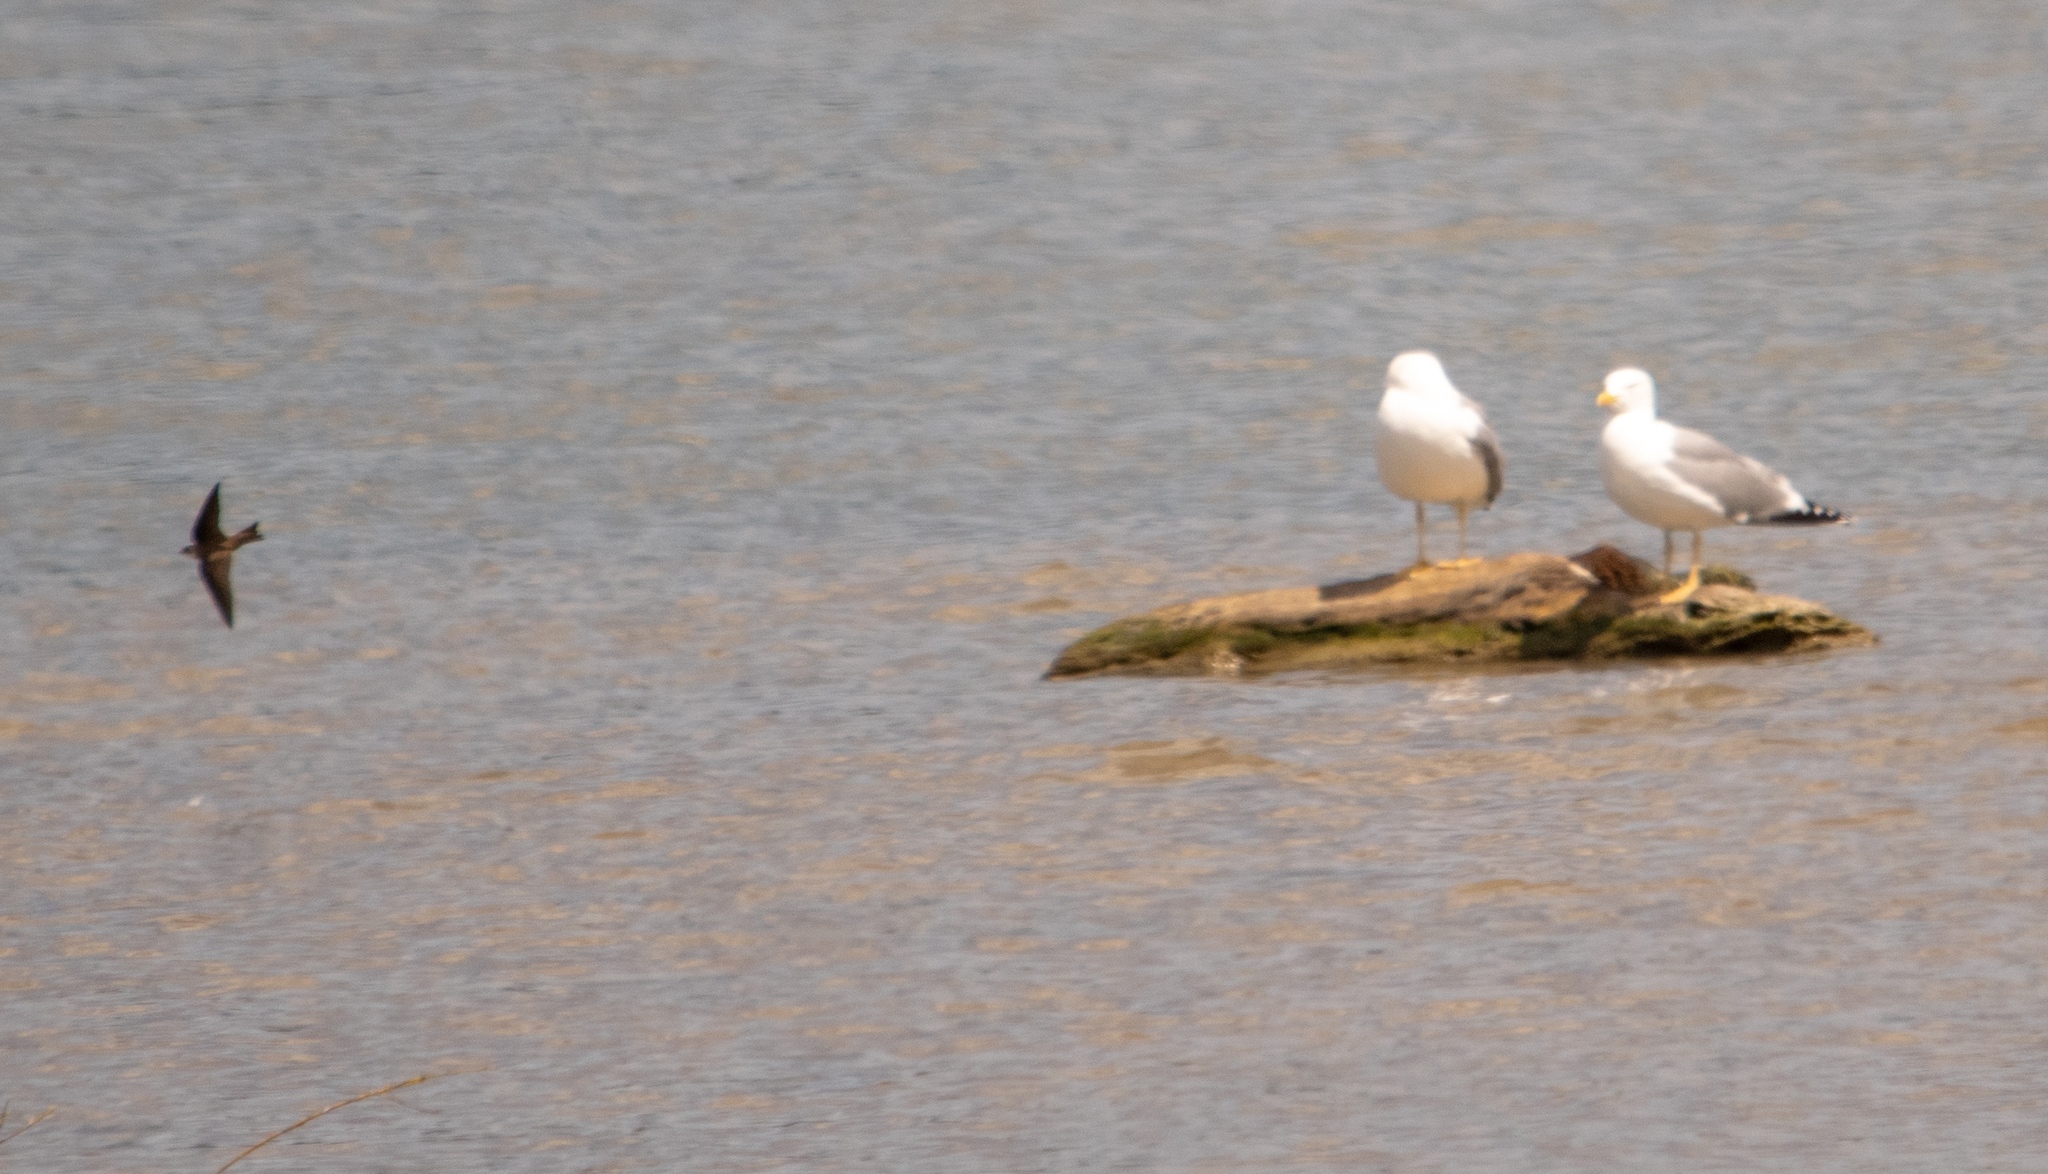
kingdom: Animalia
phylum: Chordata
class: Aves
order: Passeriformes
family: Hirundinidae
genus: Riparia
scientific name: Riparia riparia
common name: Sand martin
